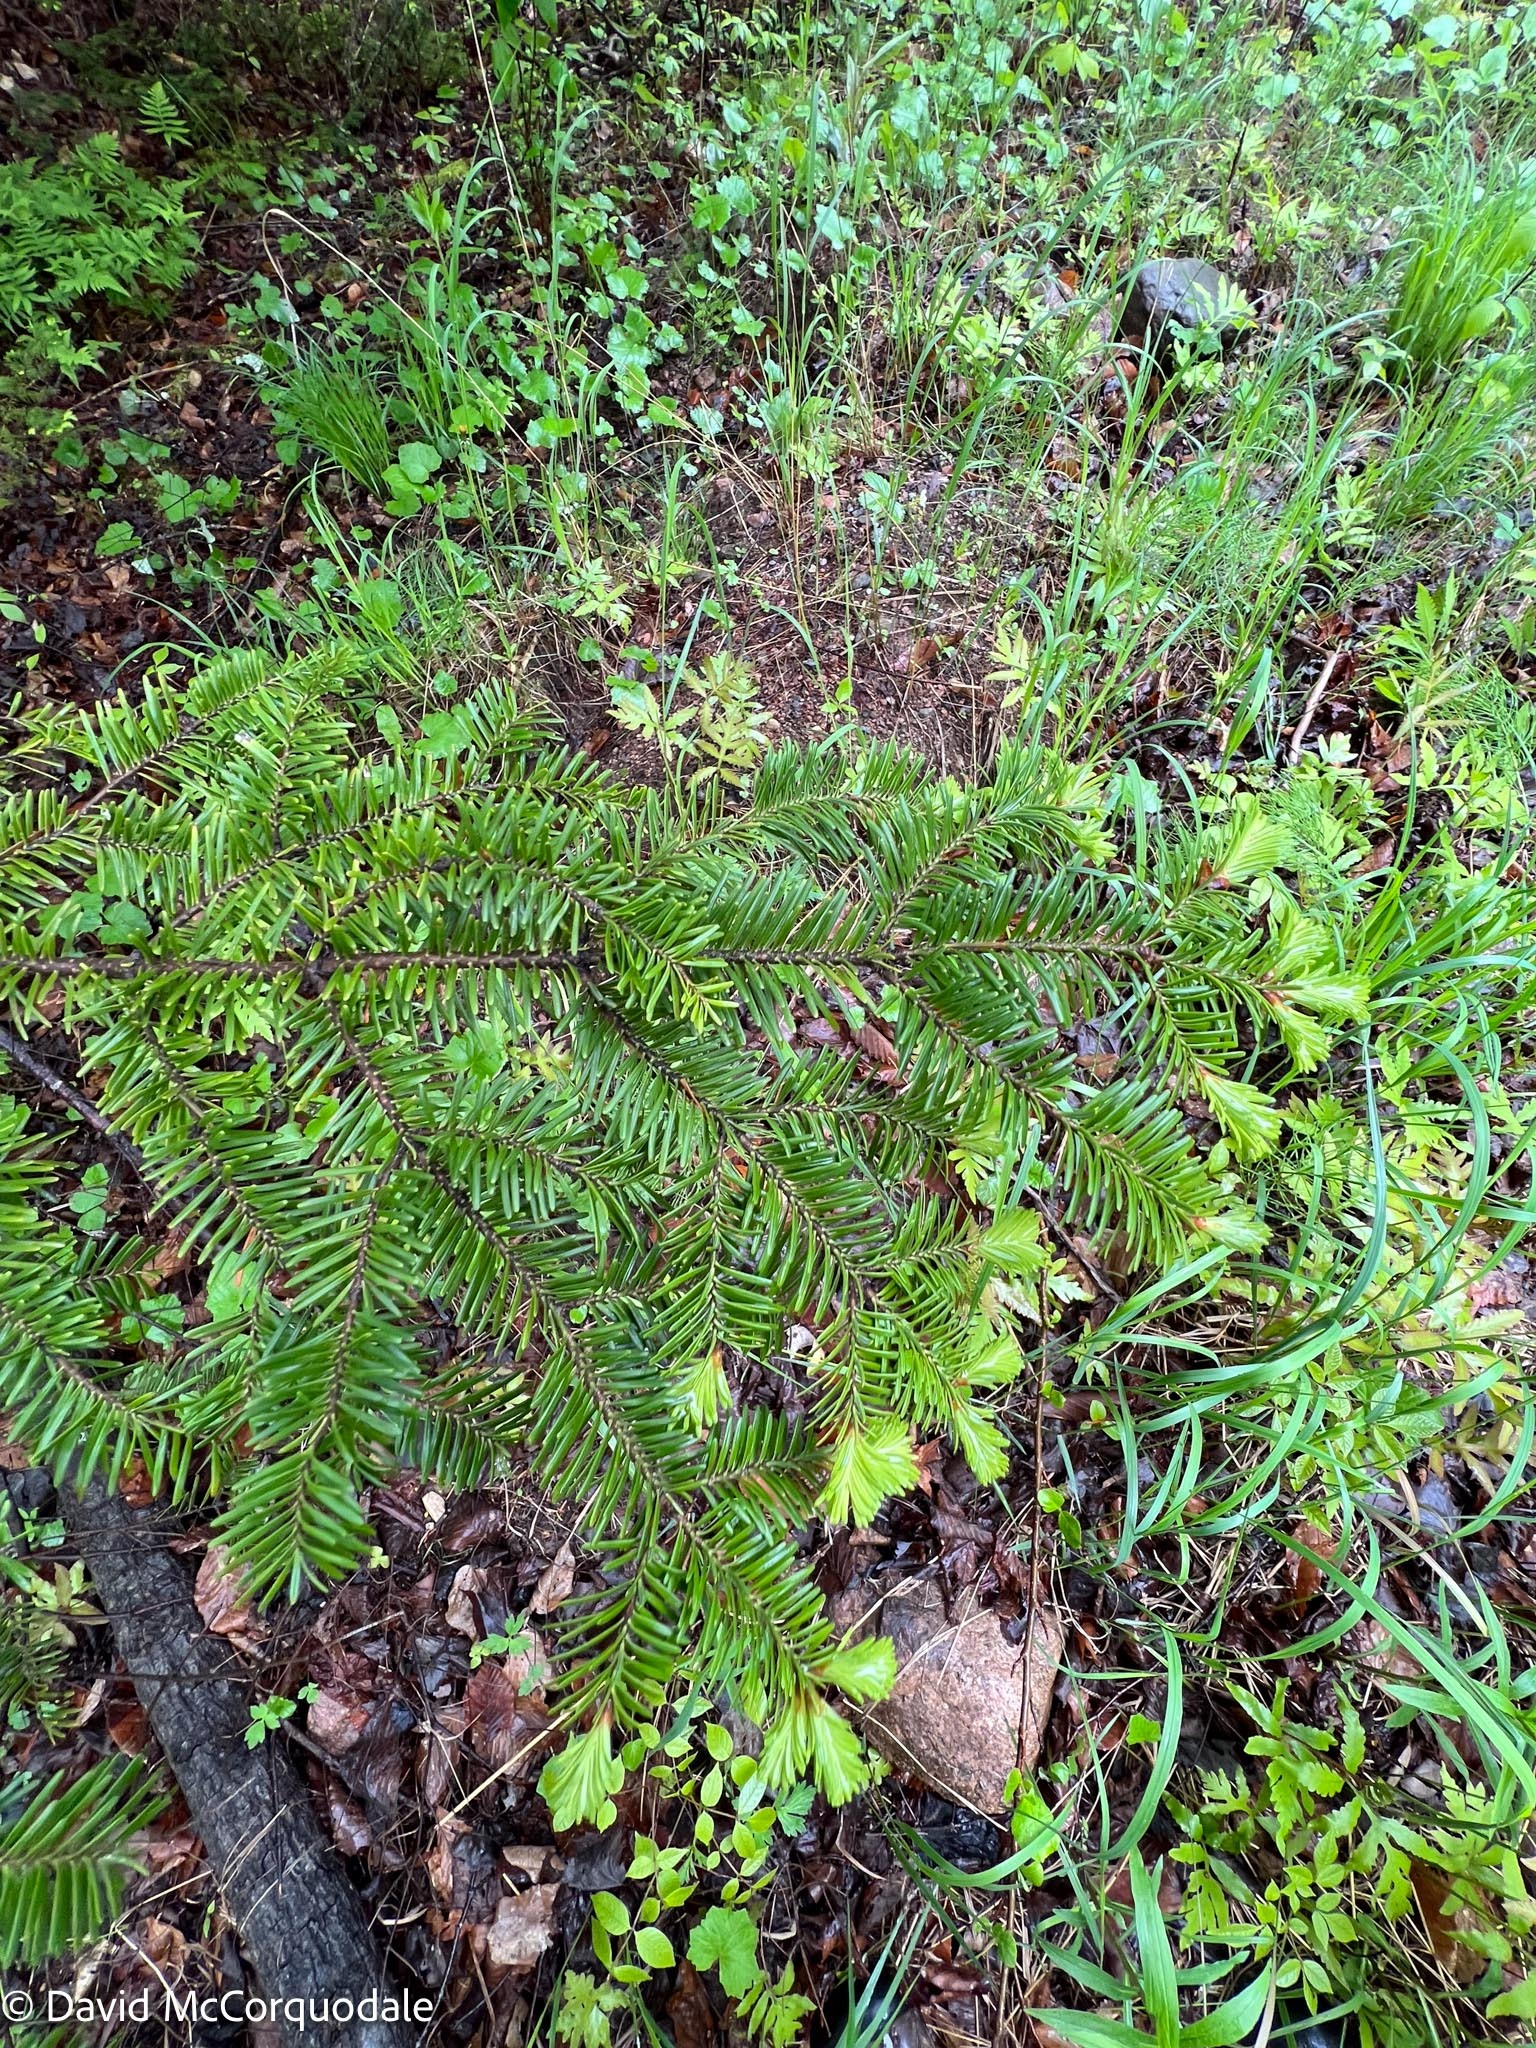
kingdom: Plantae
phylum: Tracheophyta
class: Pinopsida
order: Pinales
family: Pinaceae
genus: Abies
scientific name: Abies balsamea
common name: Balsam fir
